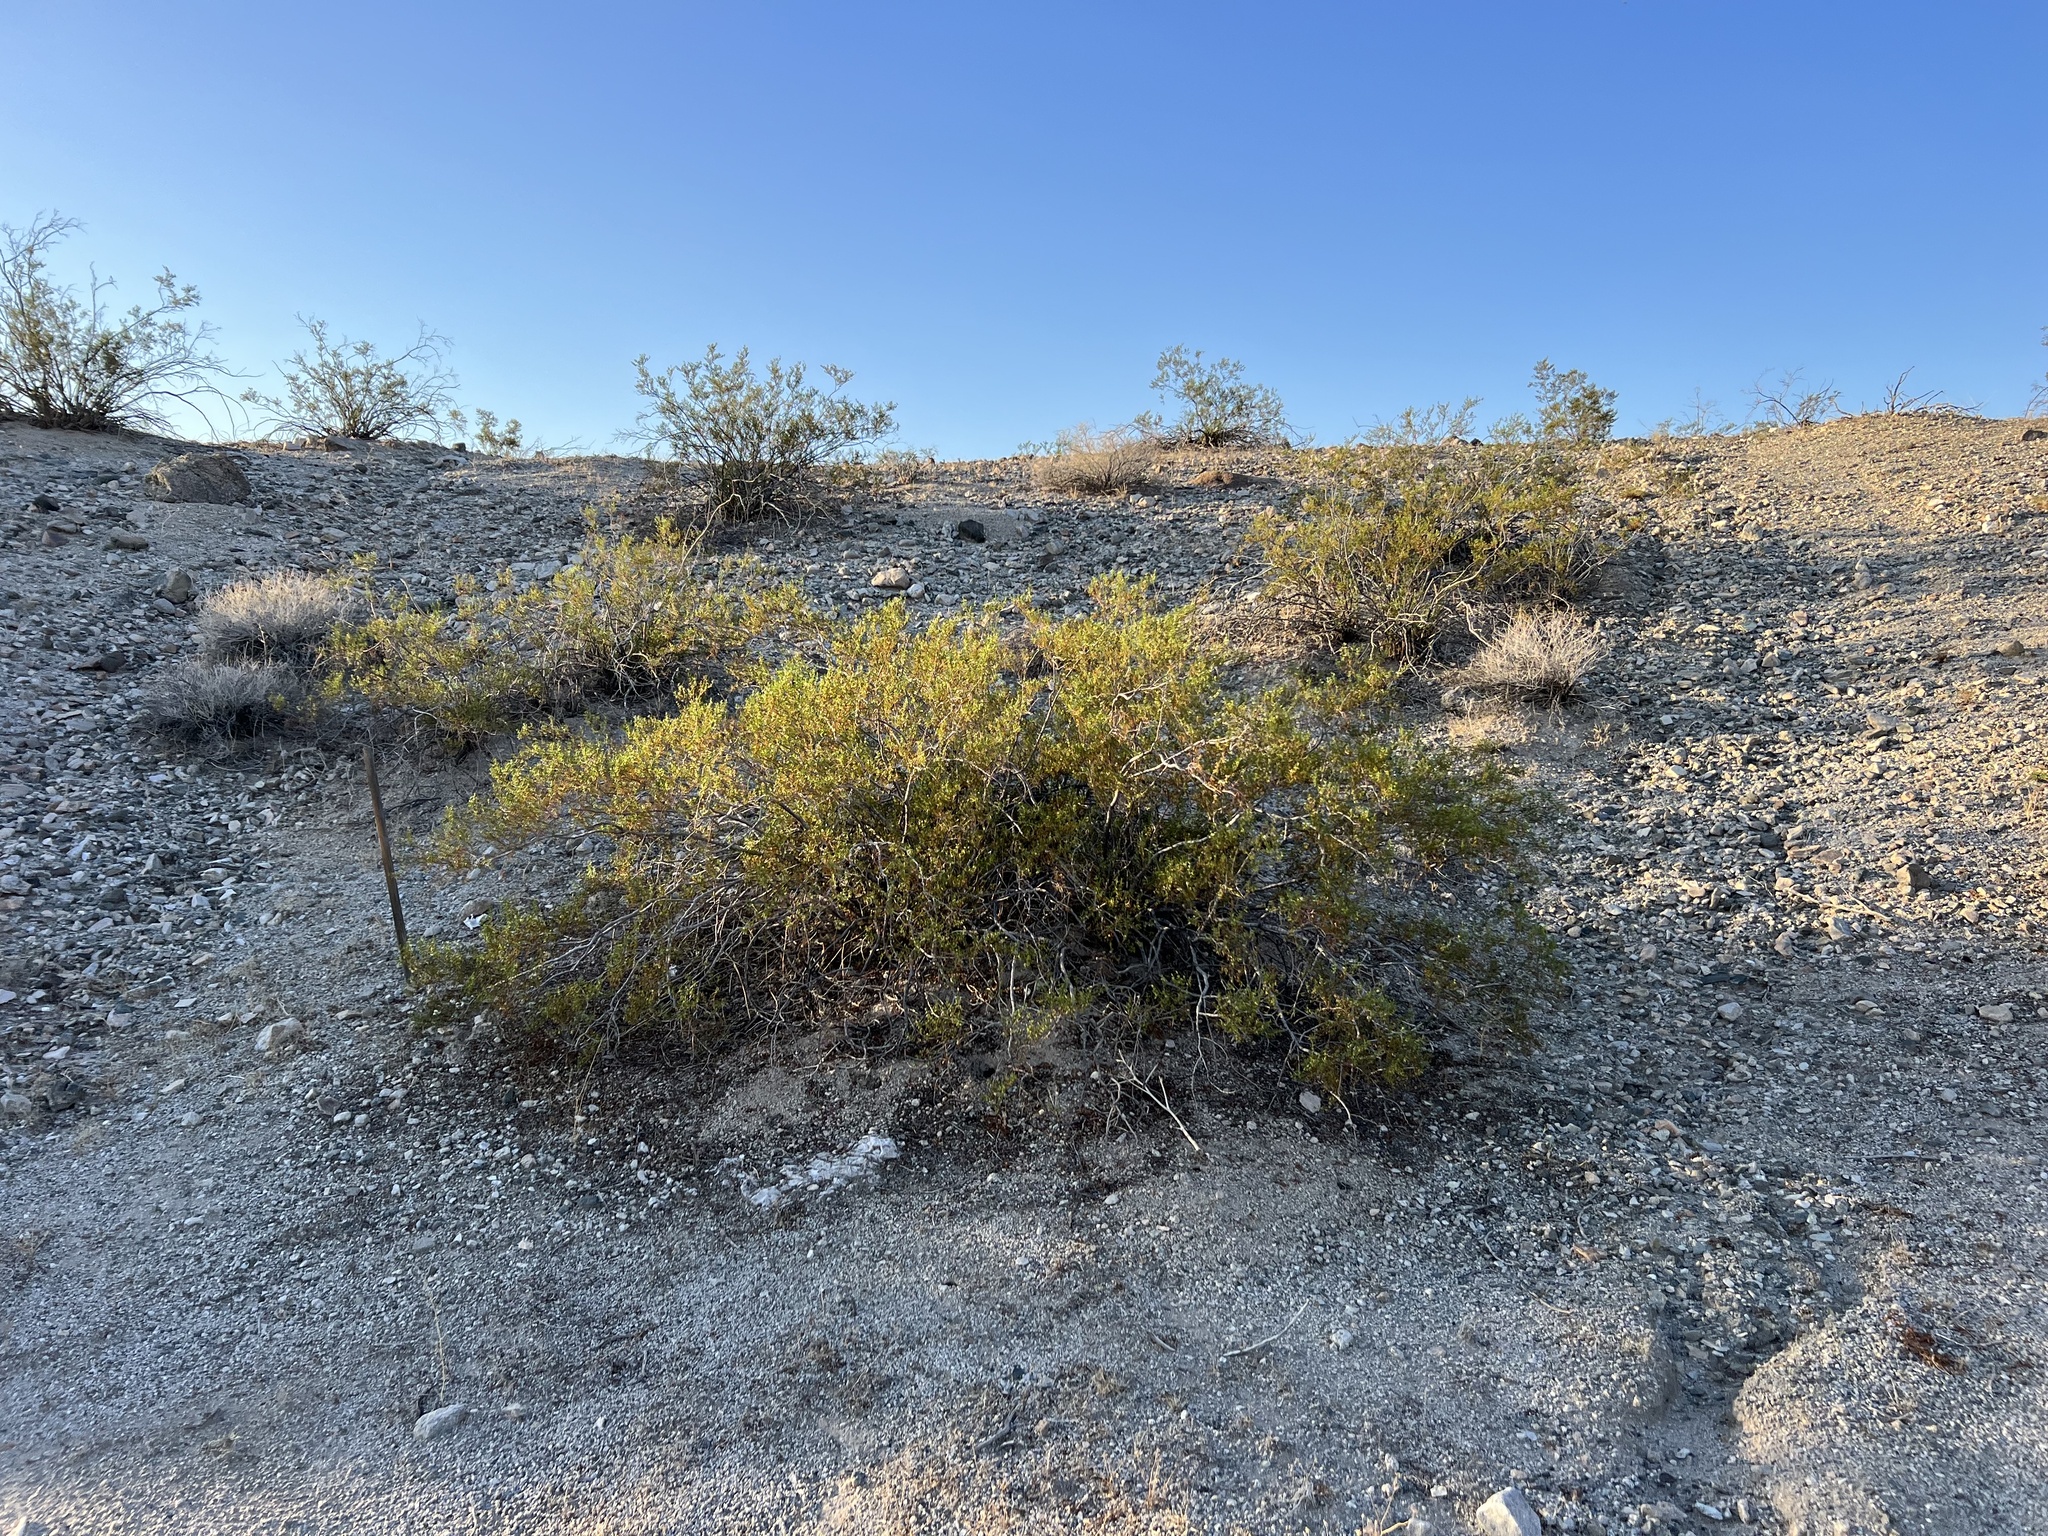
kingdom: Plantae
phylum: Tracheophyta
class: Magnoliopsida
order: Zygophyllales
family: Zygophyllaceae
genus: Larrea
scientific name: Larrea tridentata
